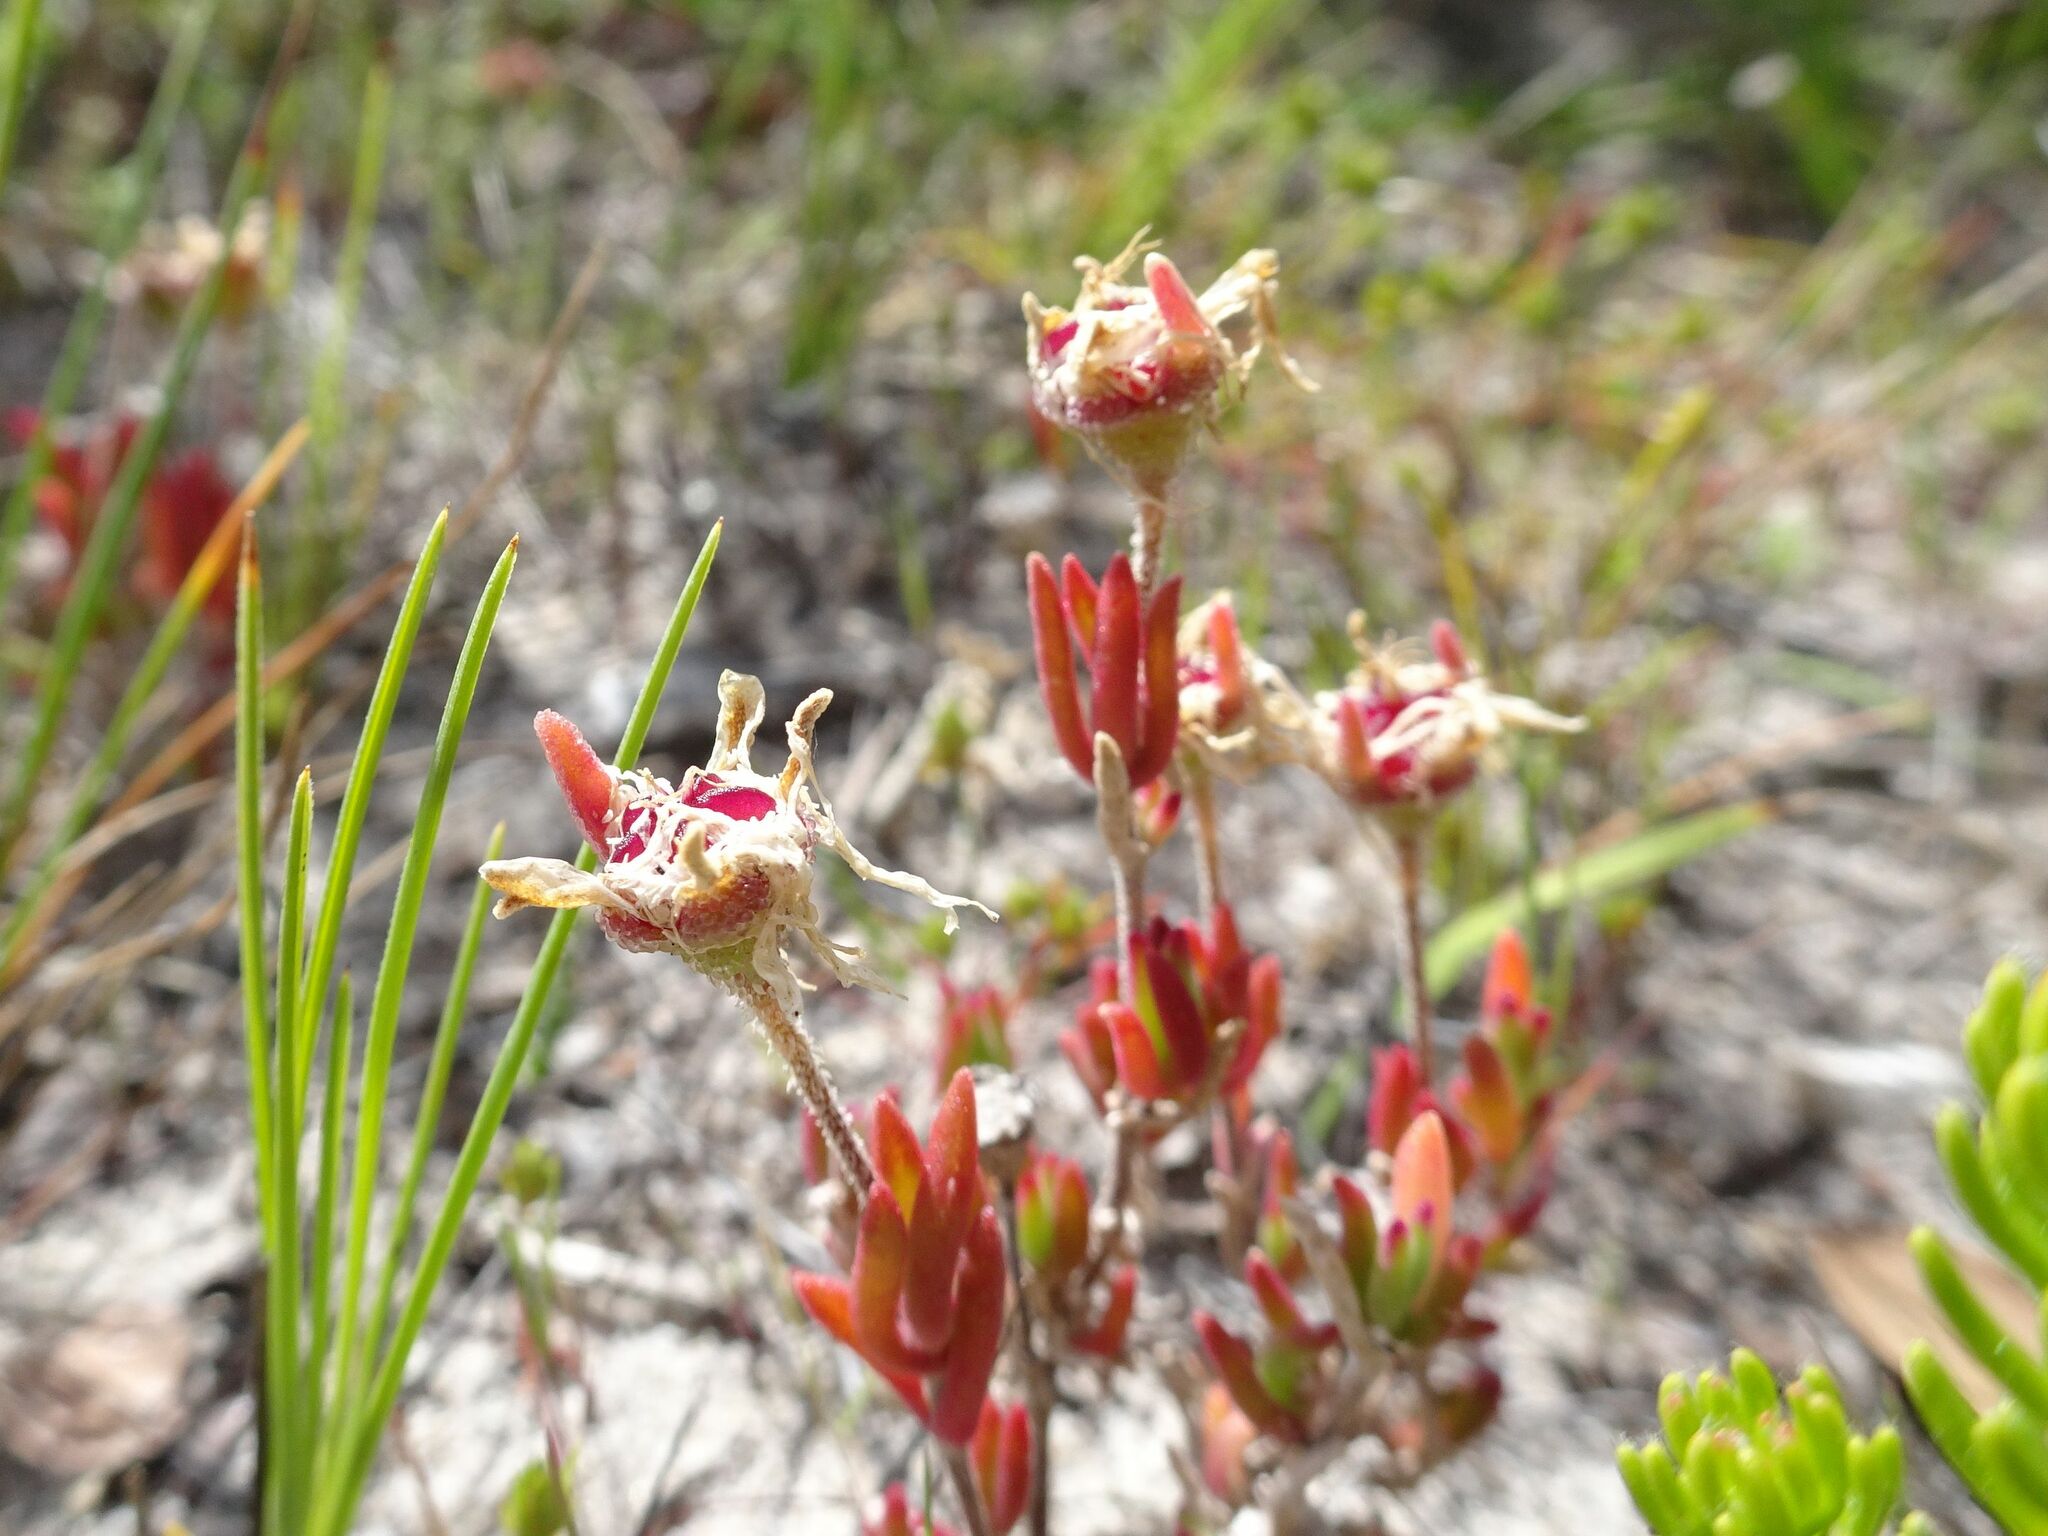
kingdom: Plantae
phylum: Tracheophyta
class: Magnoliopsida
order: Caryophyllales
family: Aizoaceae
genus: Drosanthemum
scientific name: Drosanthemum calcareum
